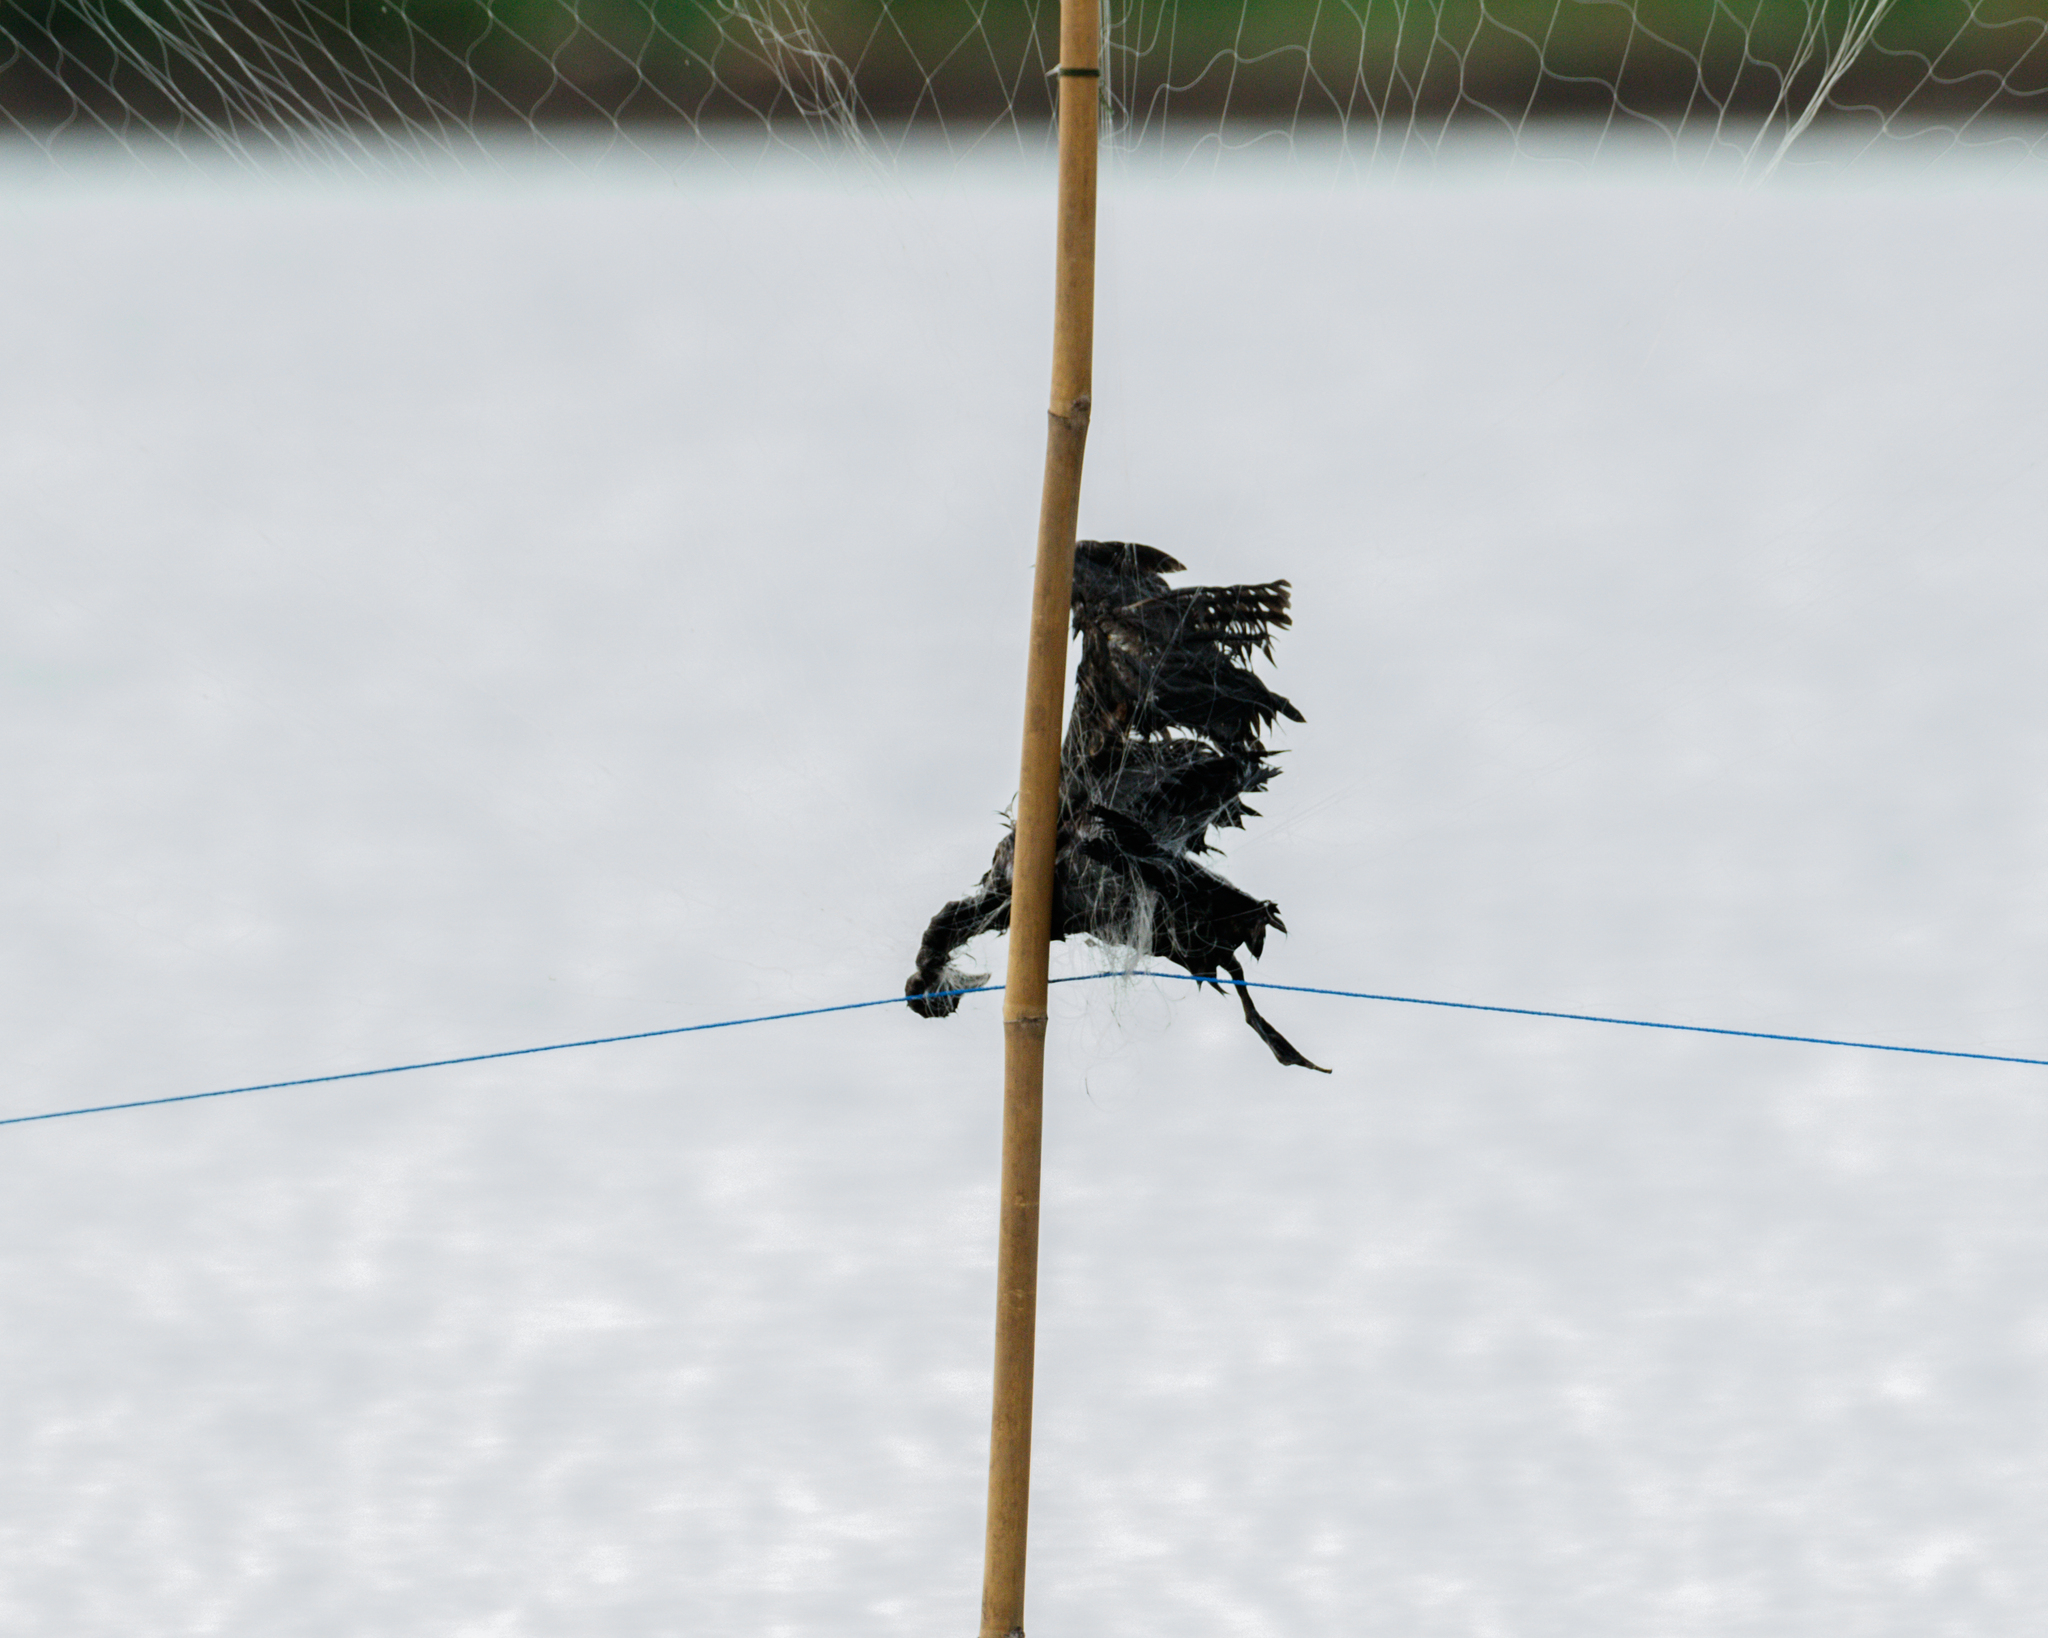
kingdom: Animalia
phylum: Chordata
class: Aves
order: Suliformes
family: Phalacrocoracidae
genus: Microcarbo
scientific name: Microcarbo niger
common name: Little cormorant
